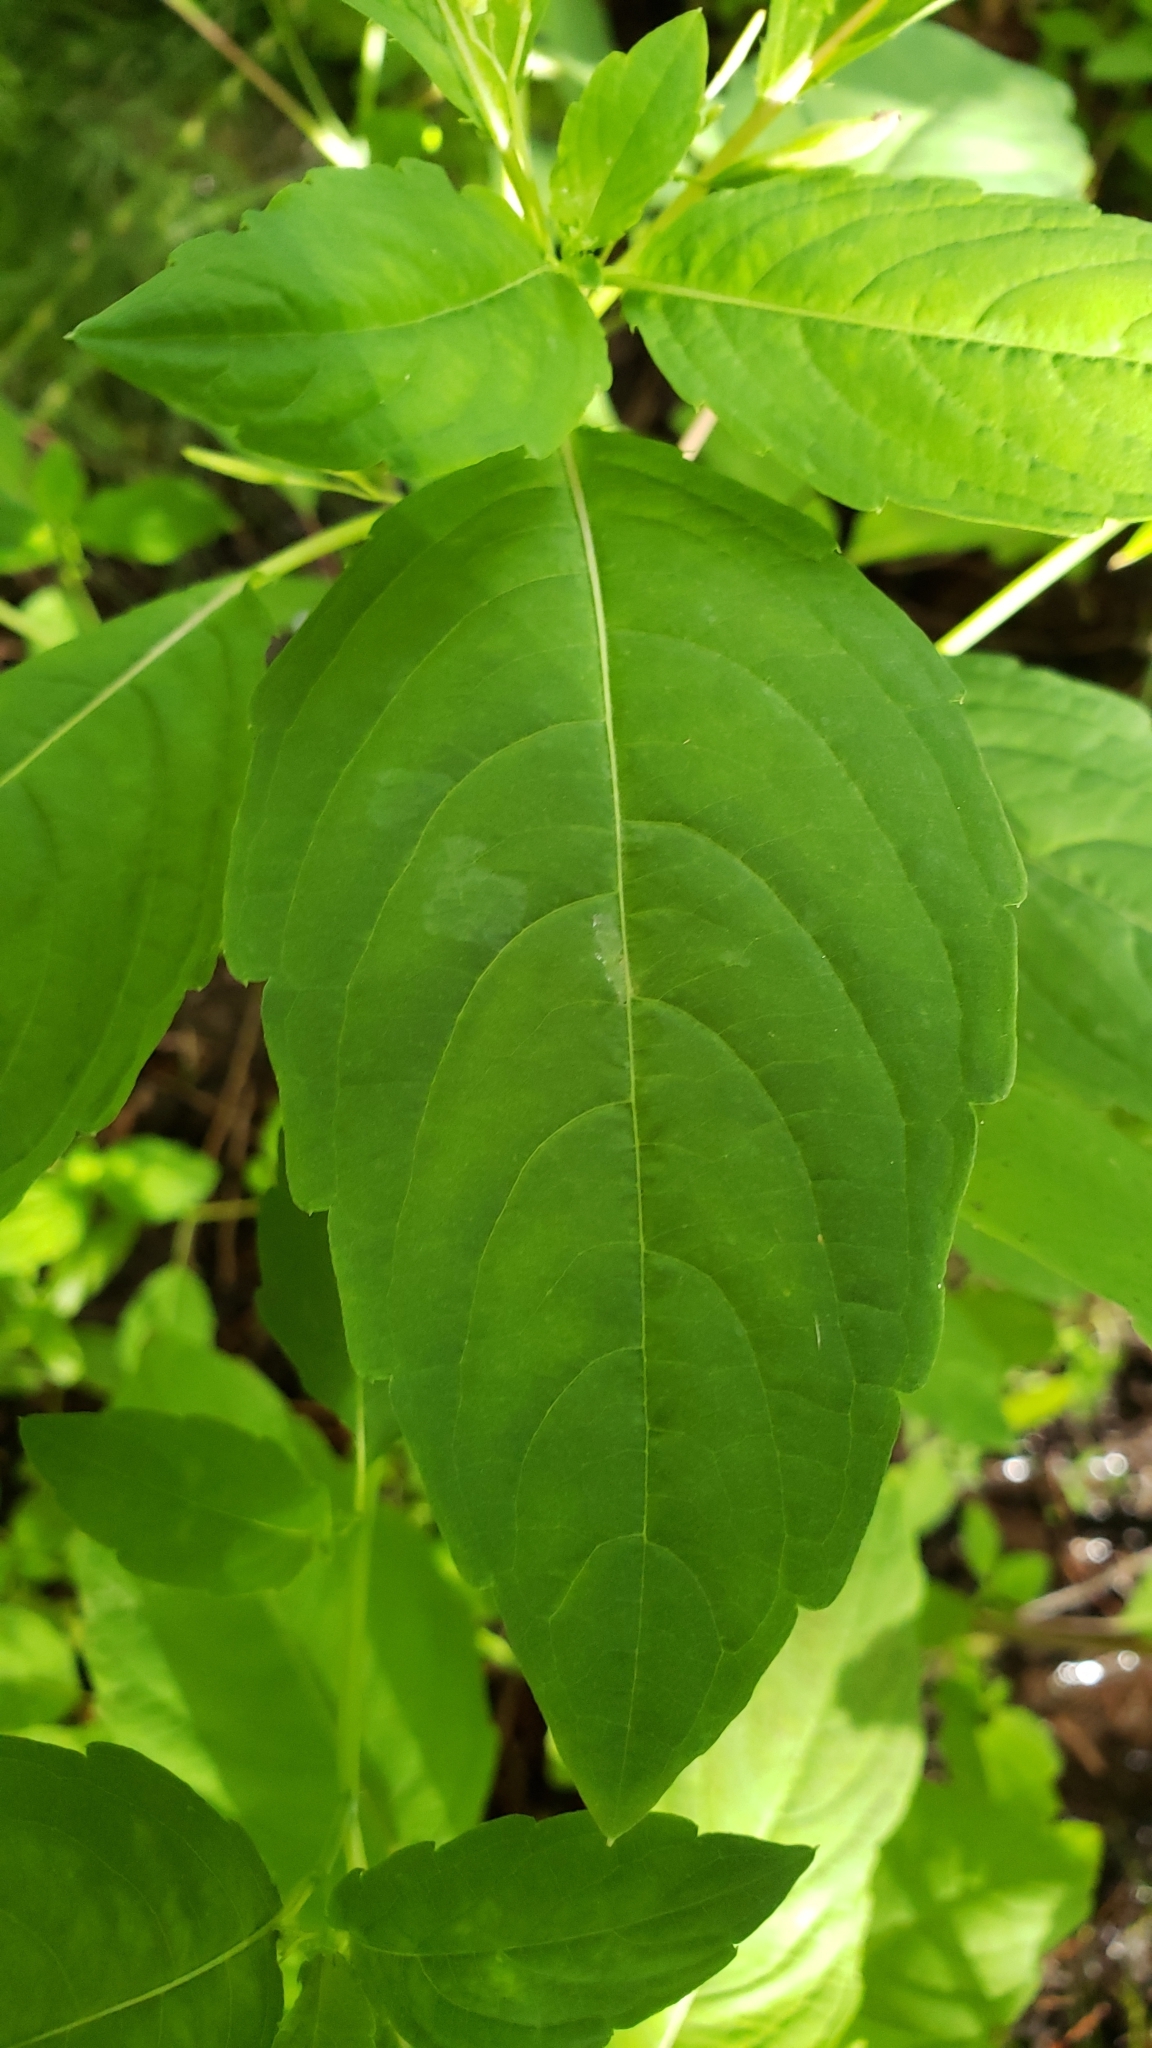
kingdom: Plantae
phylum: Tracheophyta
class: Magnoliopsida
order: Ericales
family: Balsaminaceae
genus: Impatiens
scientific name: Impatiens capensis
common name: Orange balsam
